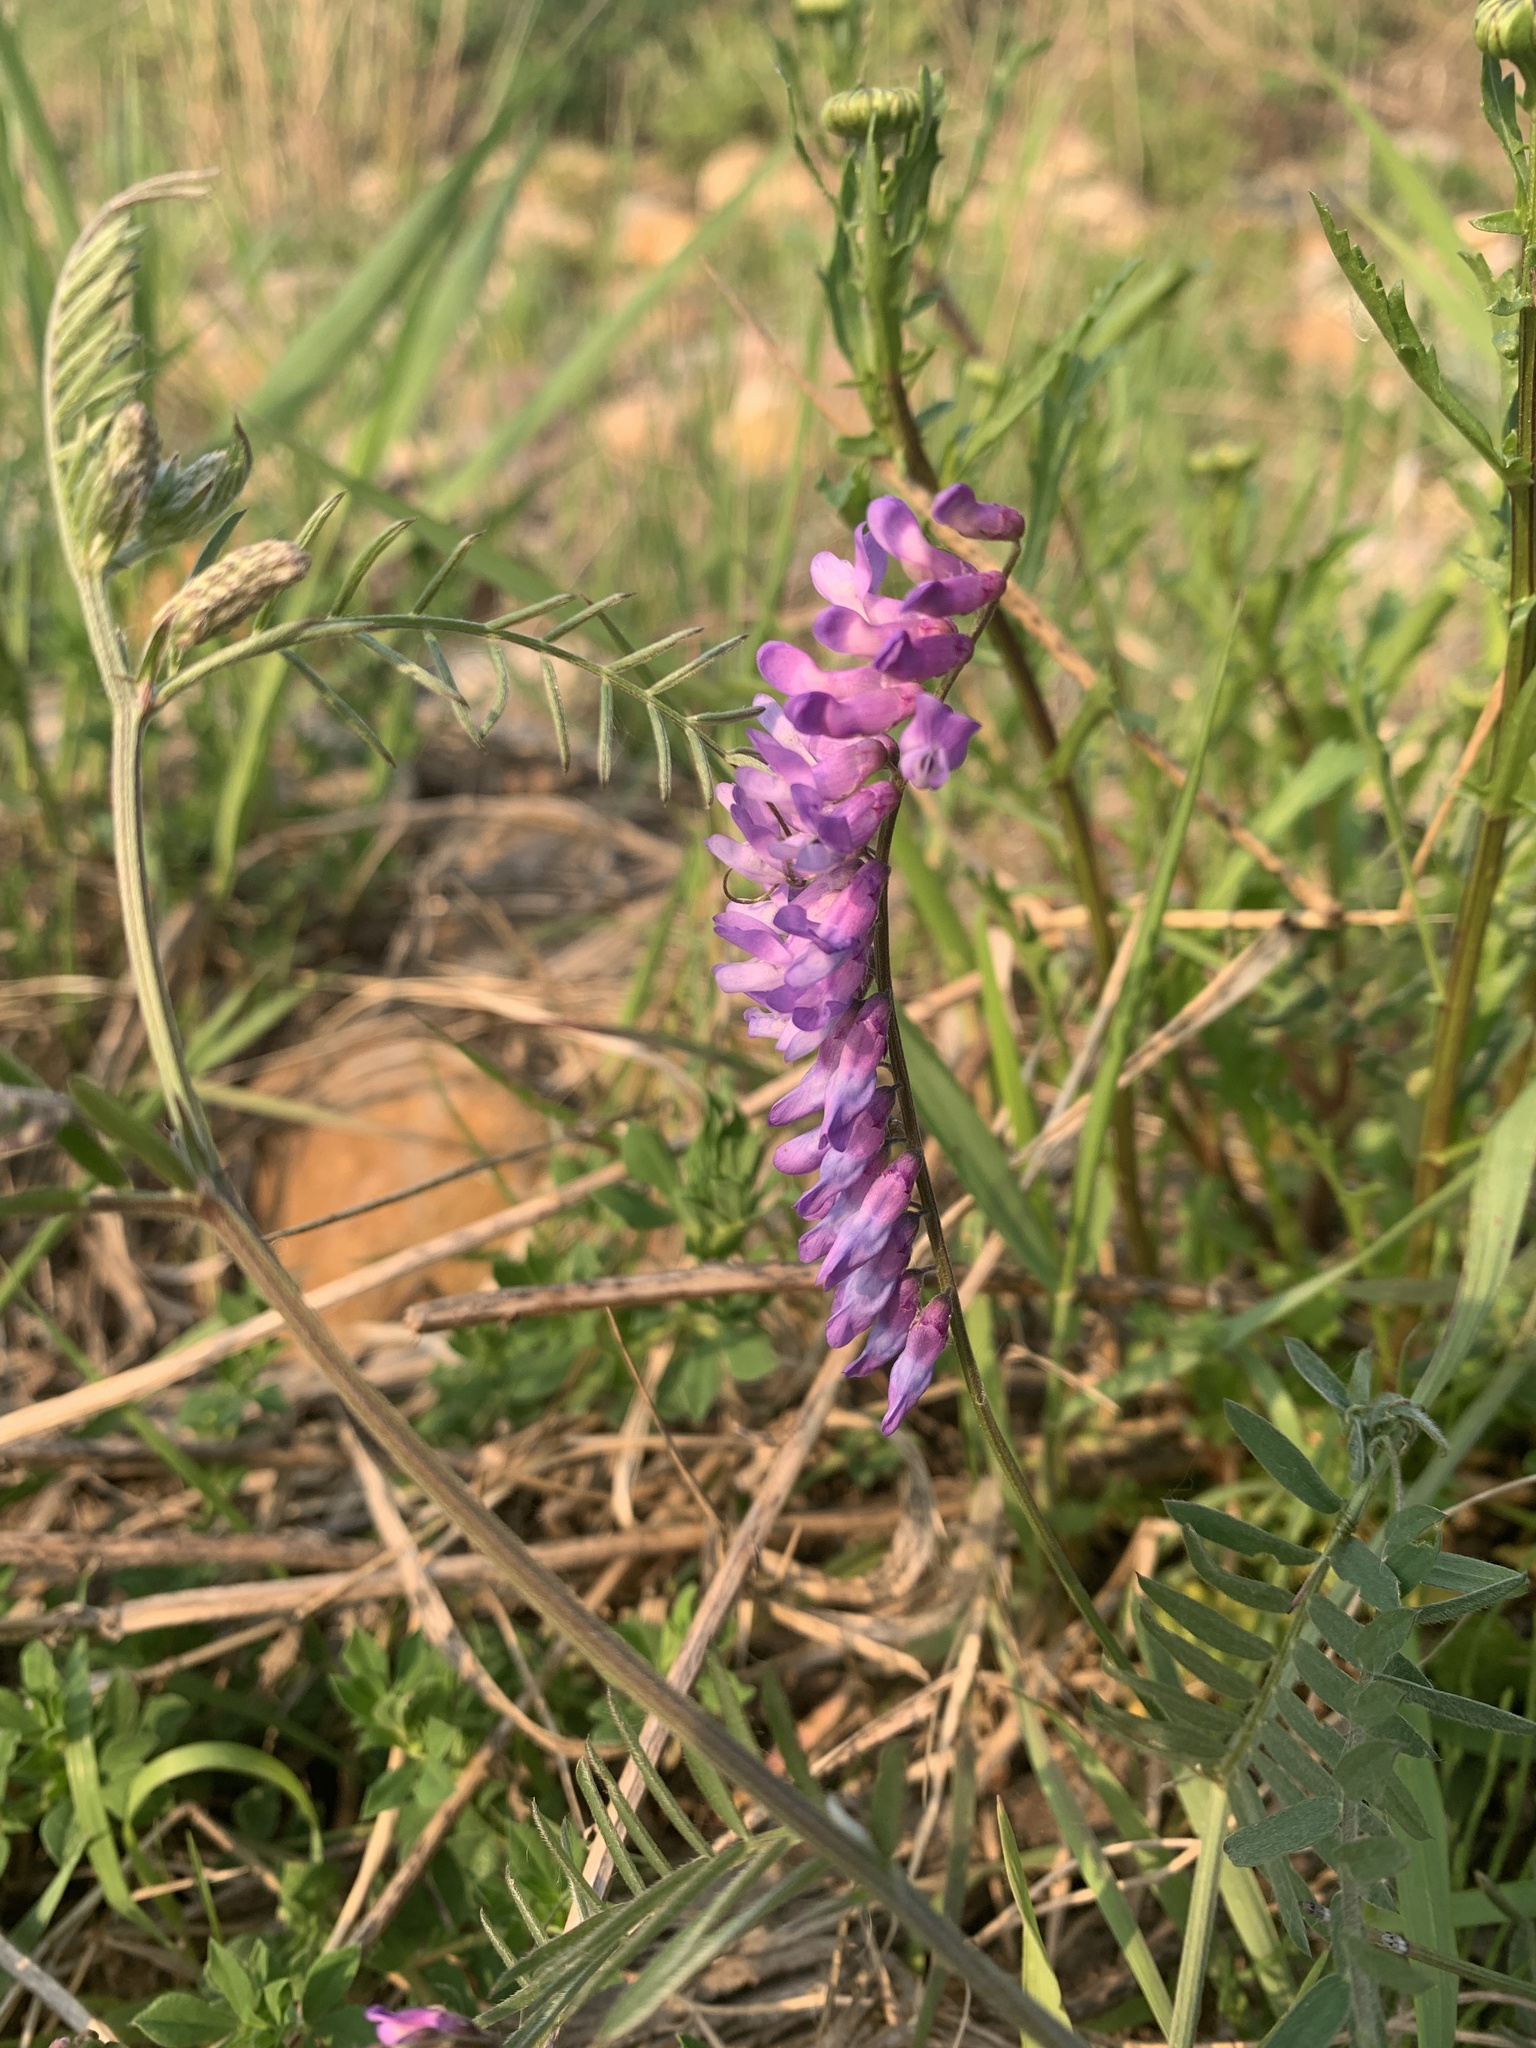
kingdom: Plantae
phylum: Tracheophyta
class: Magnoliopsida
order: Fabales
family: Fabaceae
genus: Vicia
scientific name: Vicia cracca
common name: Bird vetch
